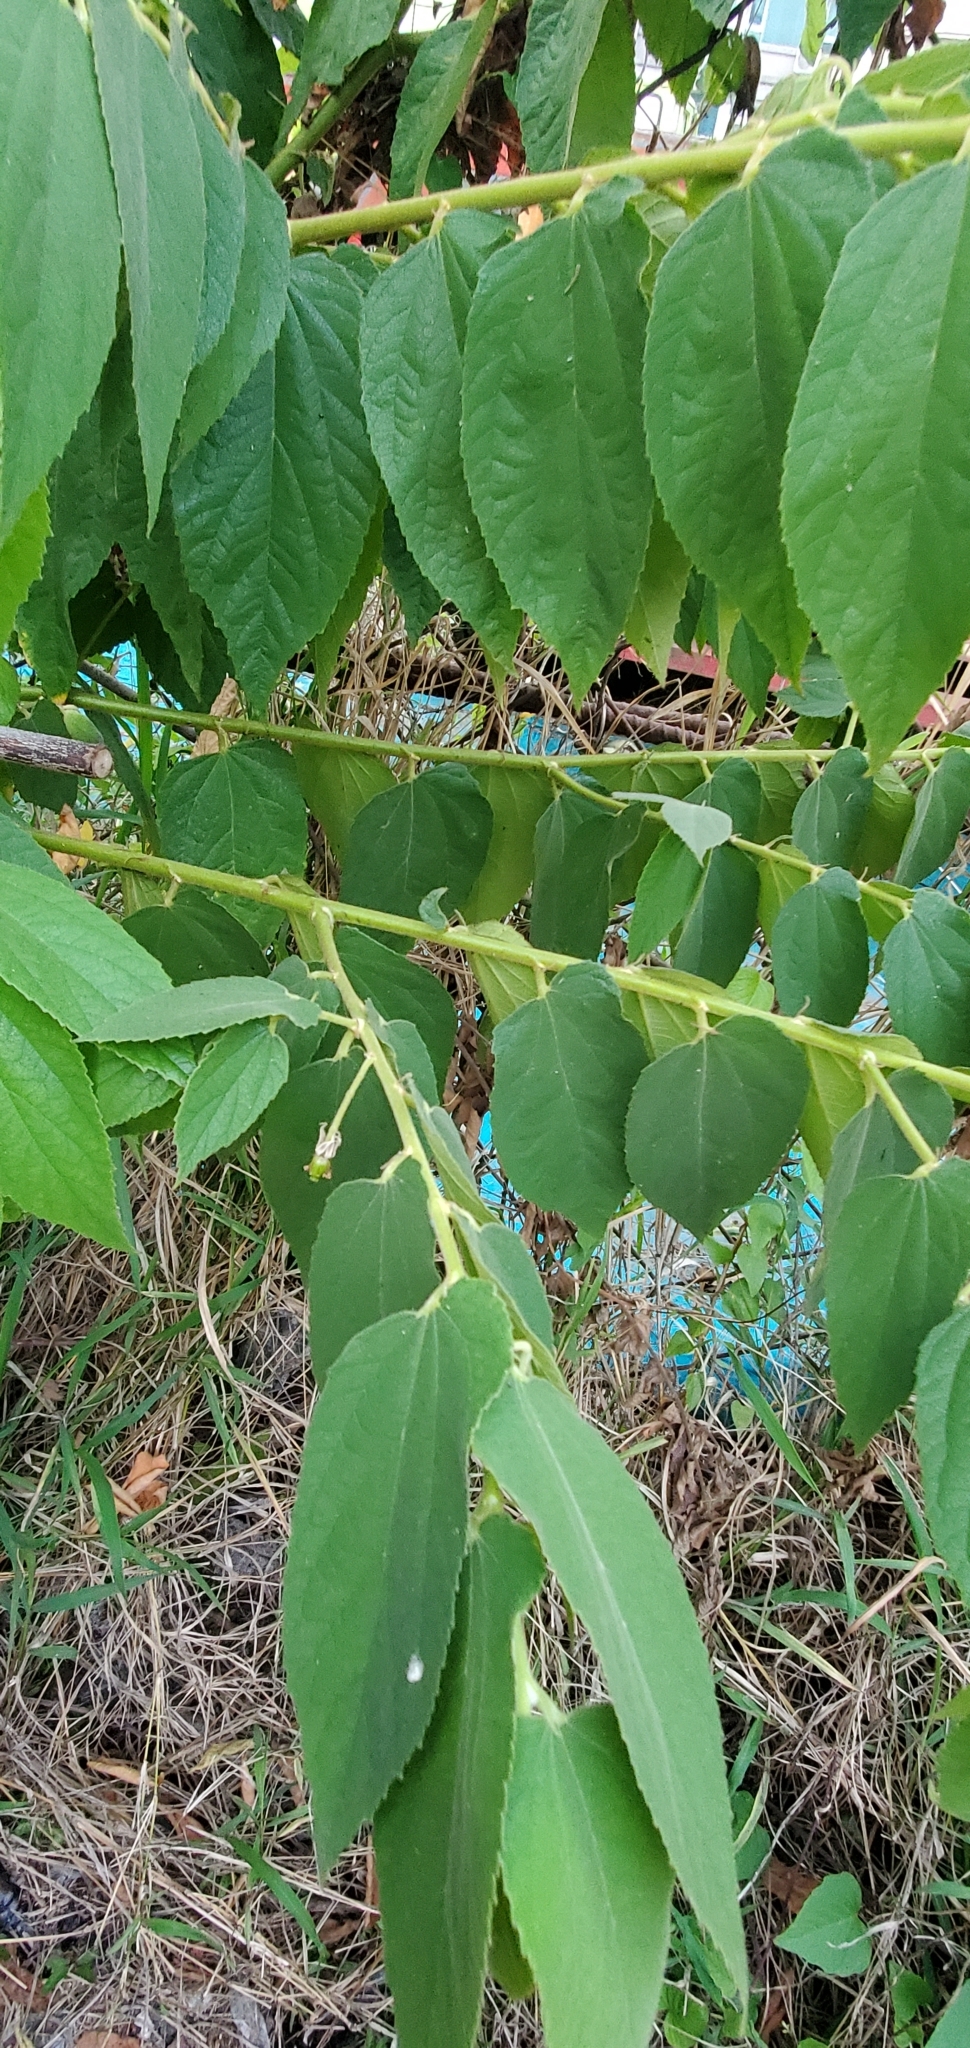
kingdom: Plantae
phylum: Tracheophyta
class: Magnoliopsida
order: Malvales
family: Muntingiaceae
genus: Muntingia
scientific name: Muntingia calabura
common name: Strawberrytree
